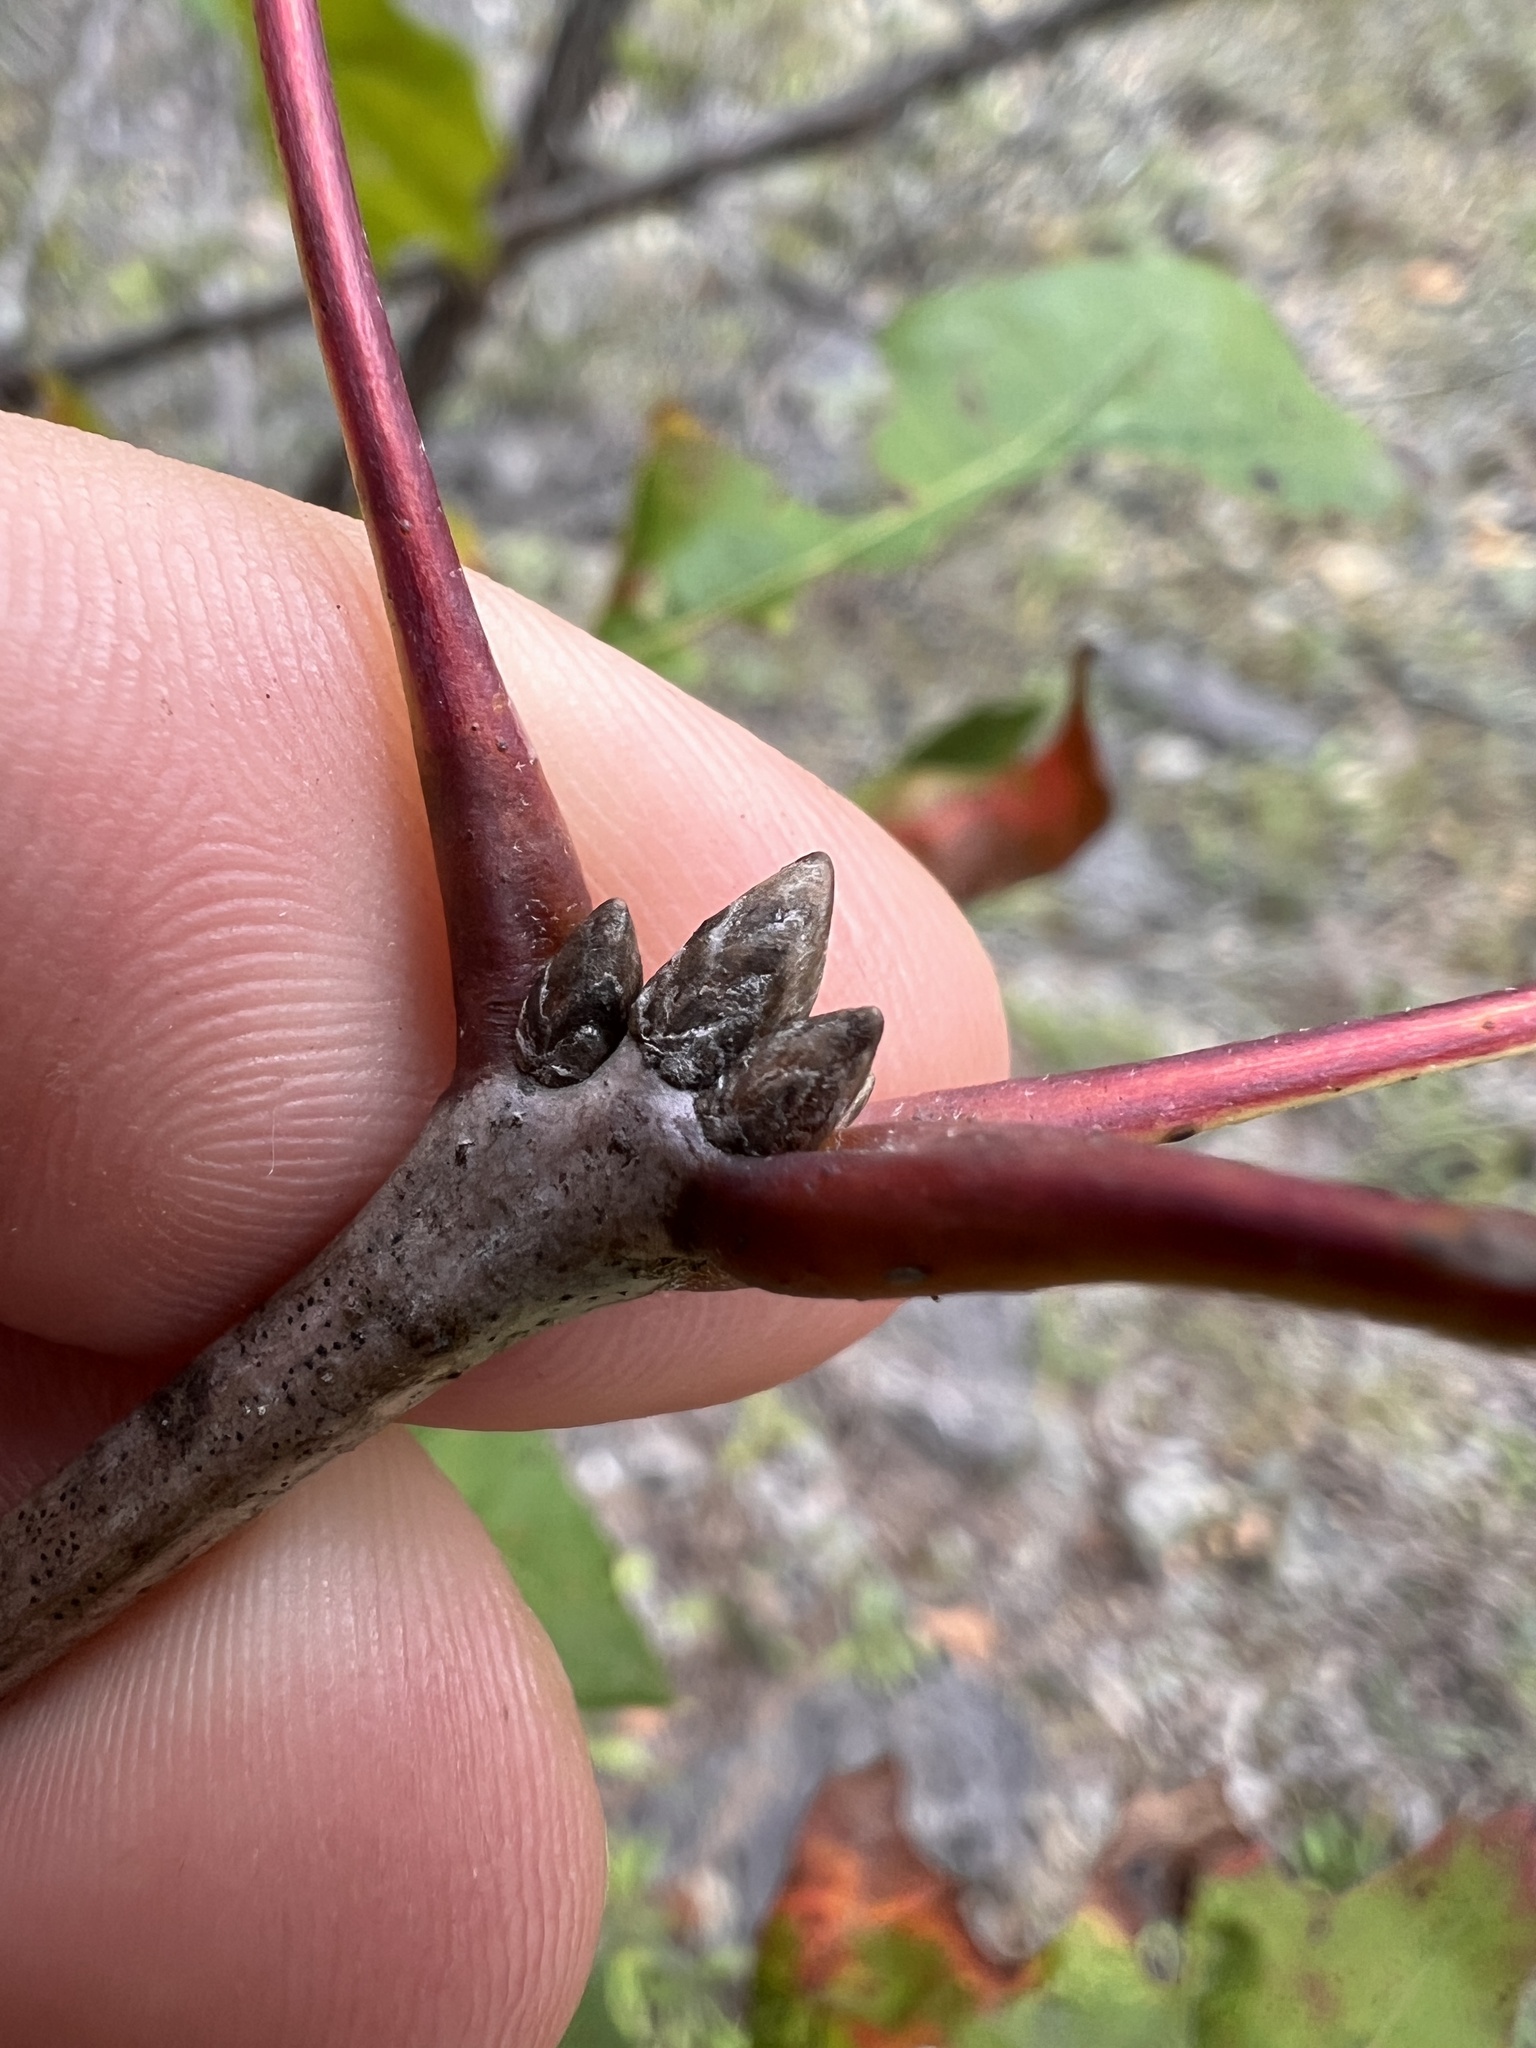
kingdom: Plantae
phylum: Tracheophyta
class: Magnoliopsida
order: Fagales
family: Fagaceae
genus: Quercus
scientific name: Quercus rubra
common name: Red oak
